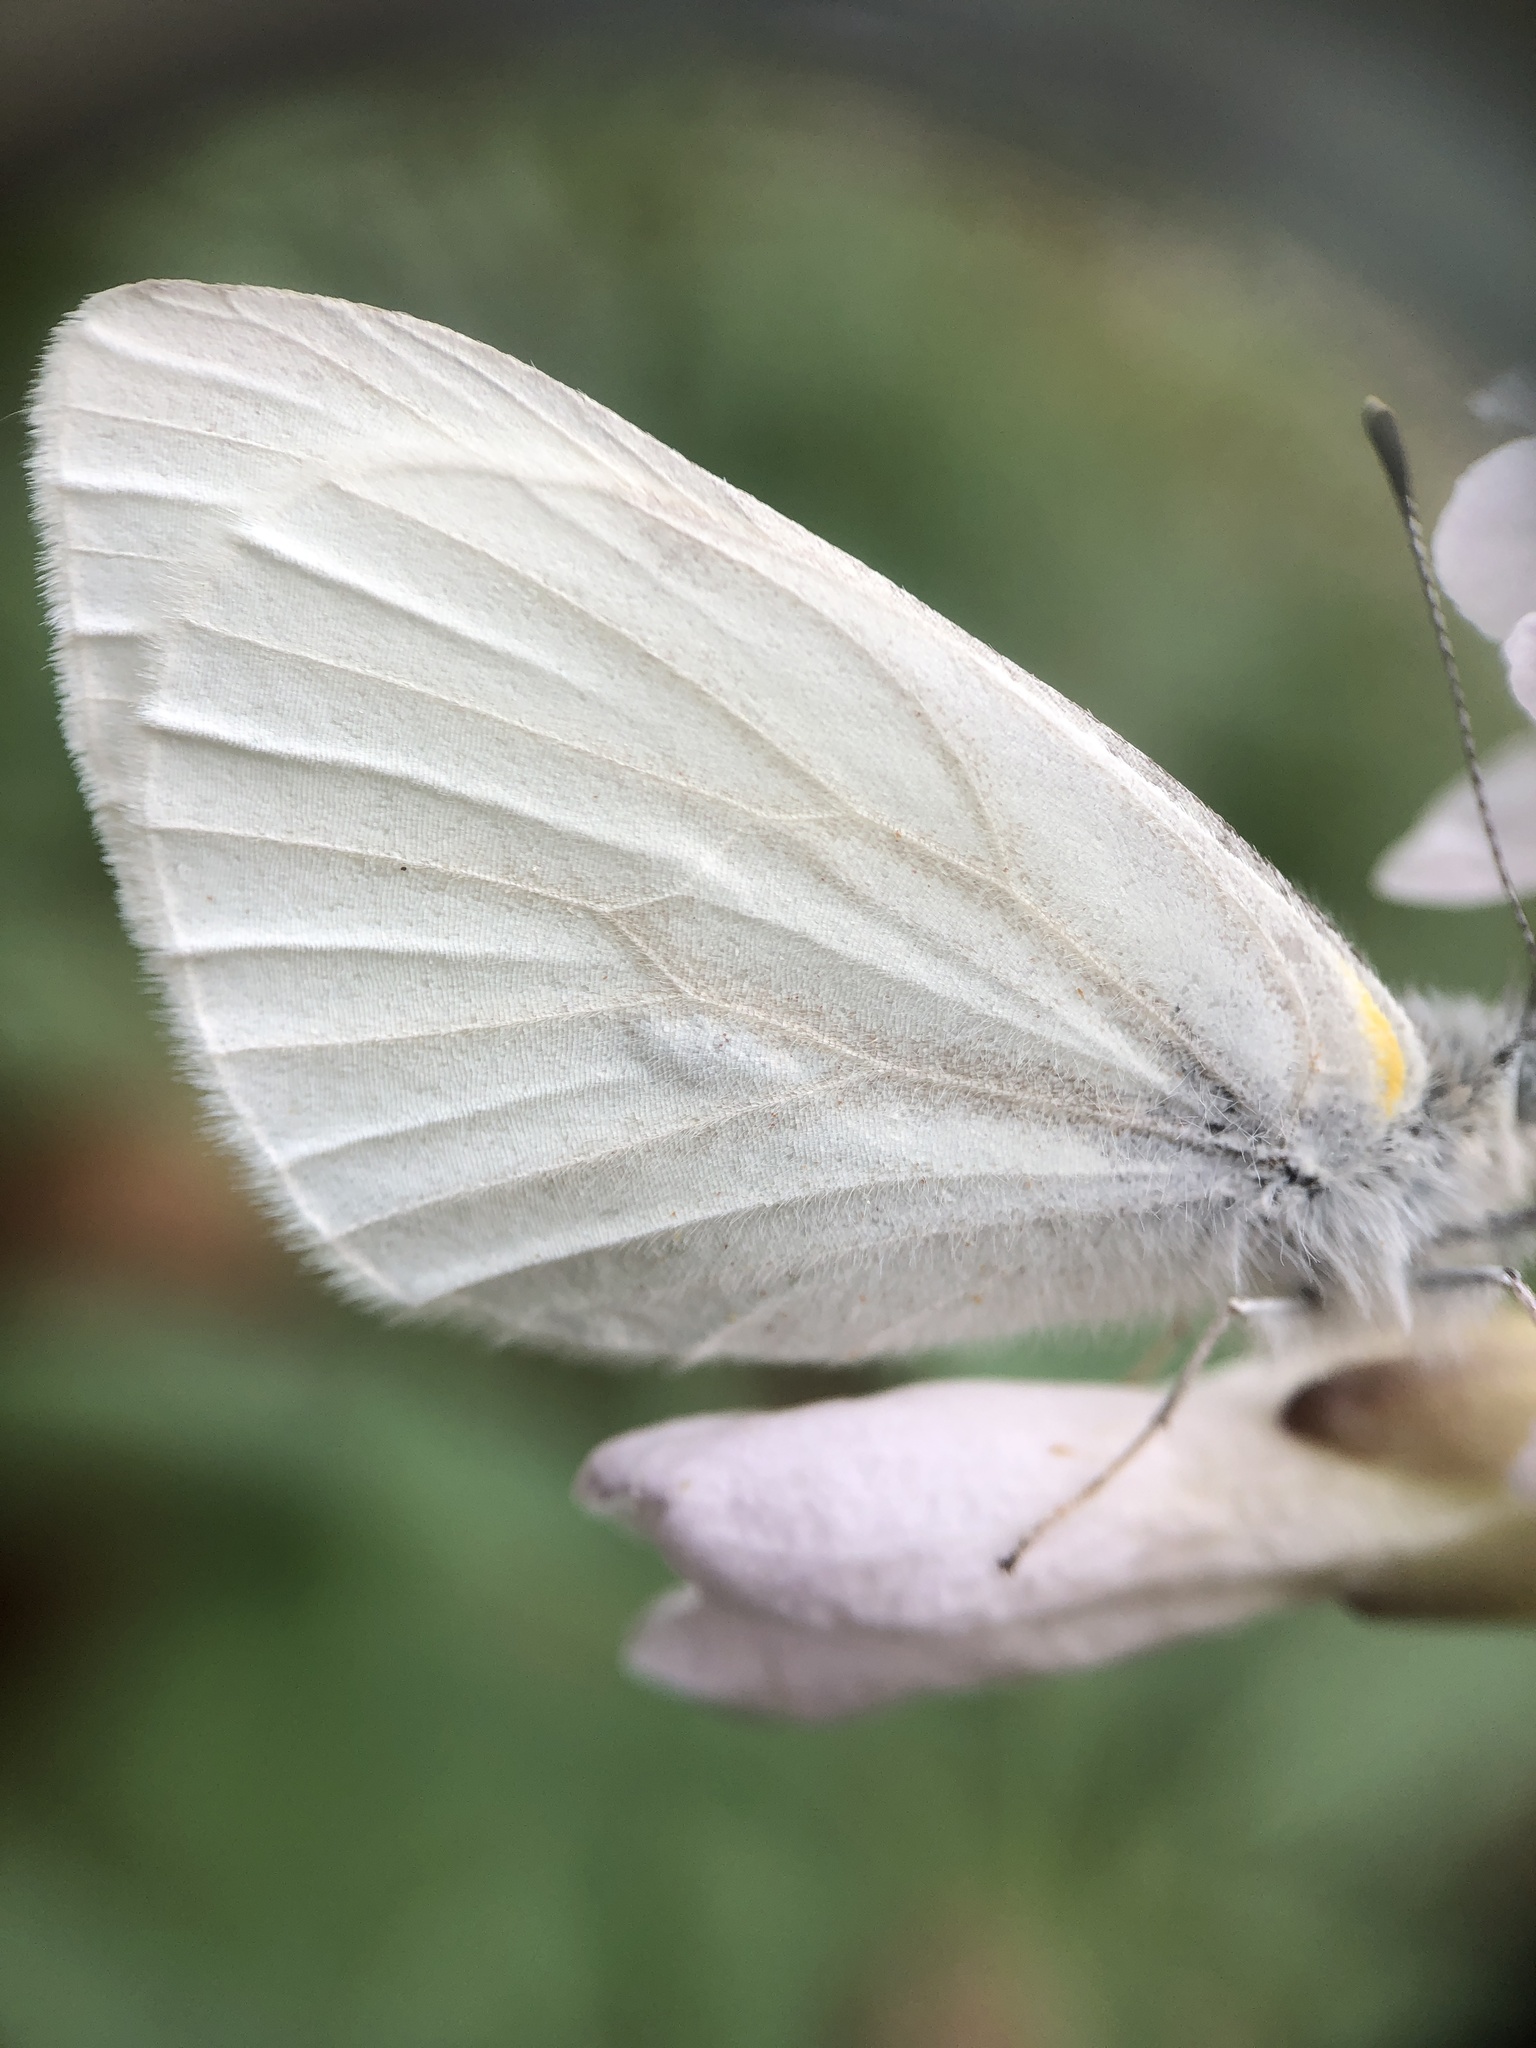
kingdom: Animalia
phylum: Arthropoda
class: Insecta
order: Lepidoptera
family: Pieridae
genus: Pieris
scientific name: Pieris virginiensis
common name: West virginia white
